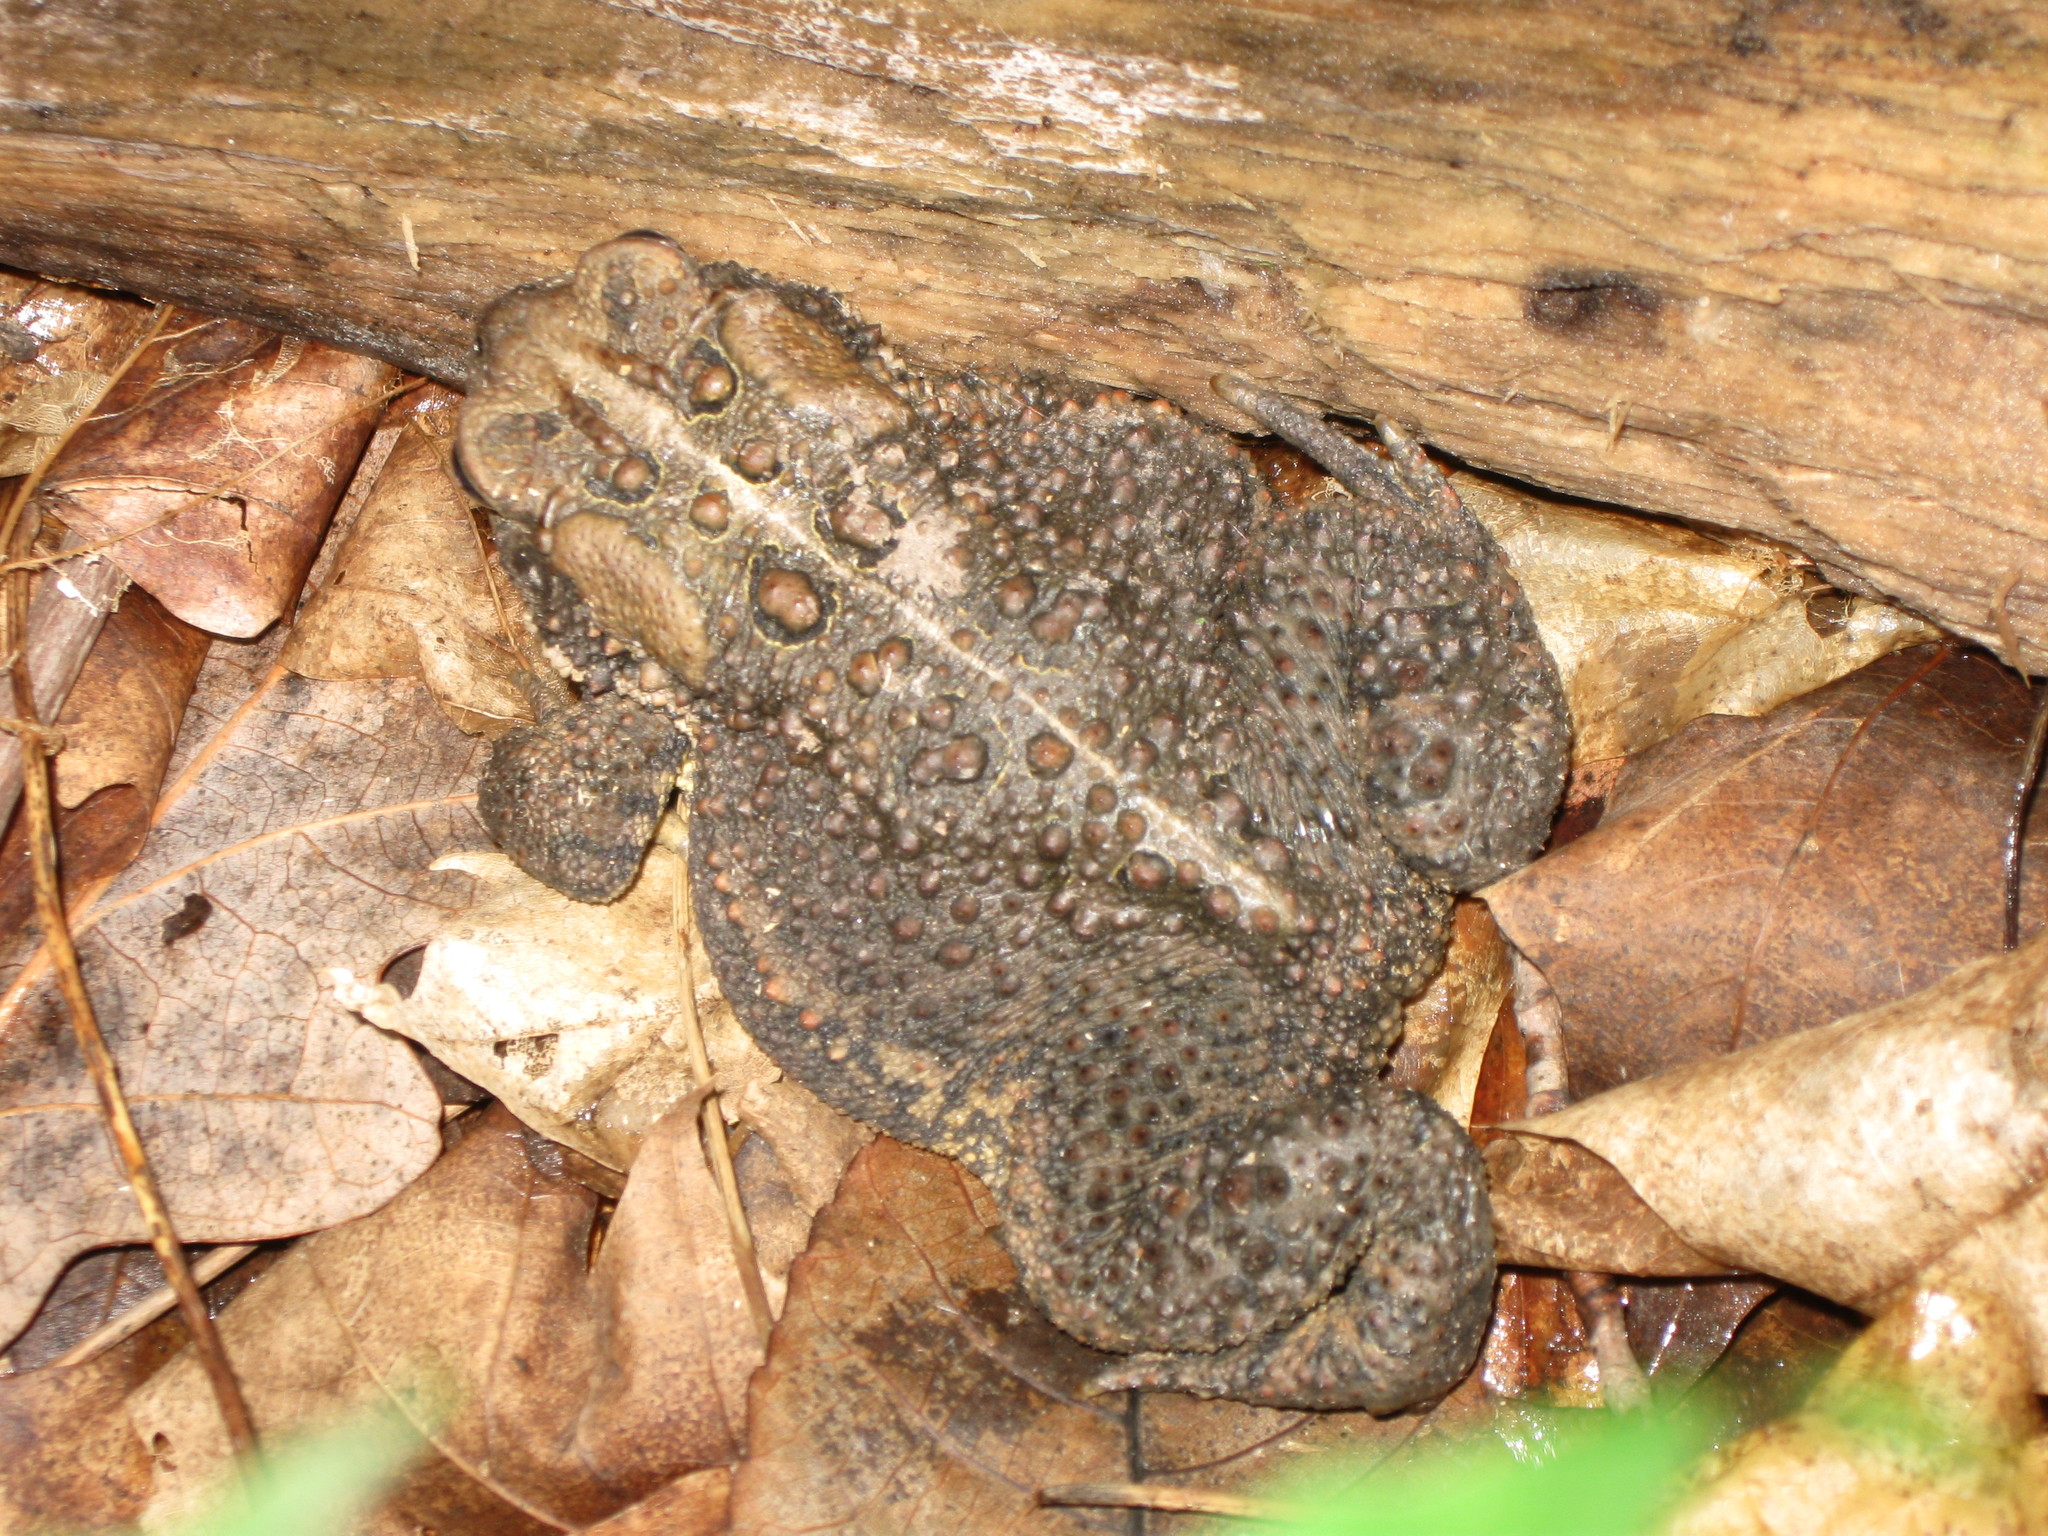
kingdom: Animalia
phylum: Chordata
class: Amphibia
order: Anura
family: Bufonidae
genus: Anaxyrus
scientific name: Anaxyrus americanus
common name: American toad
